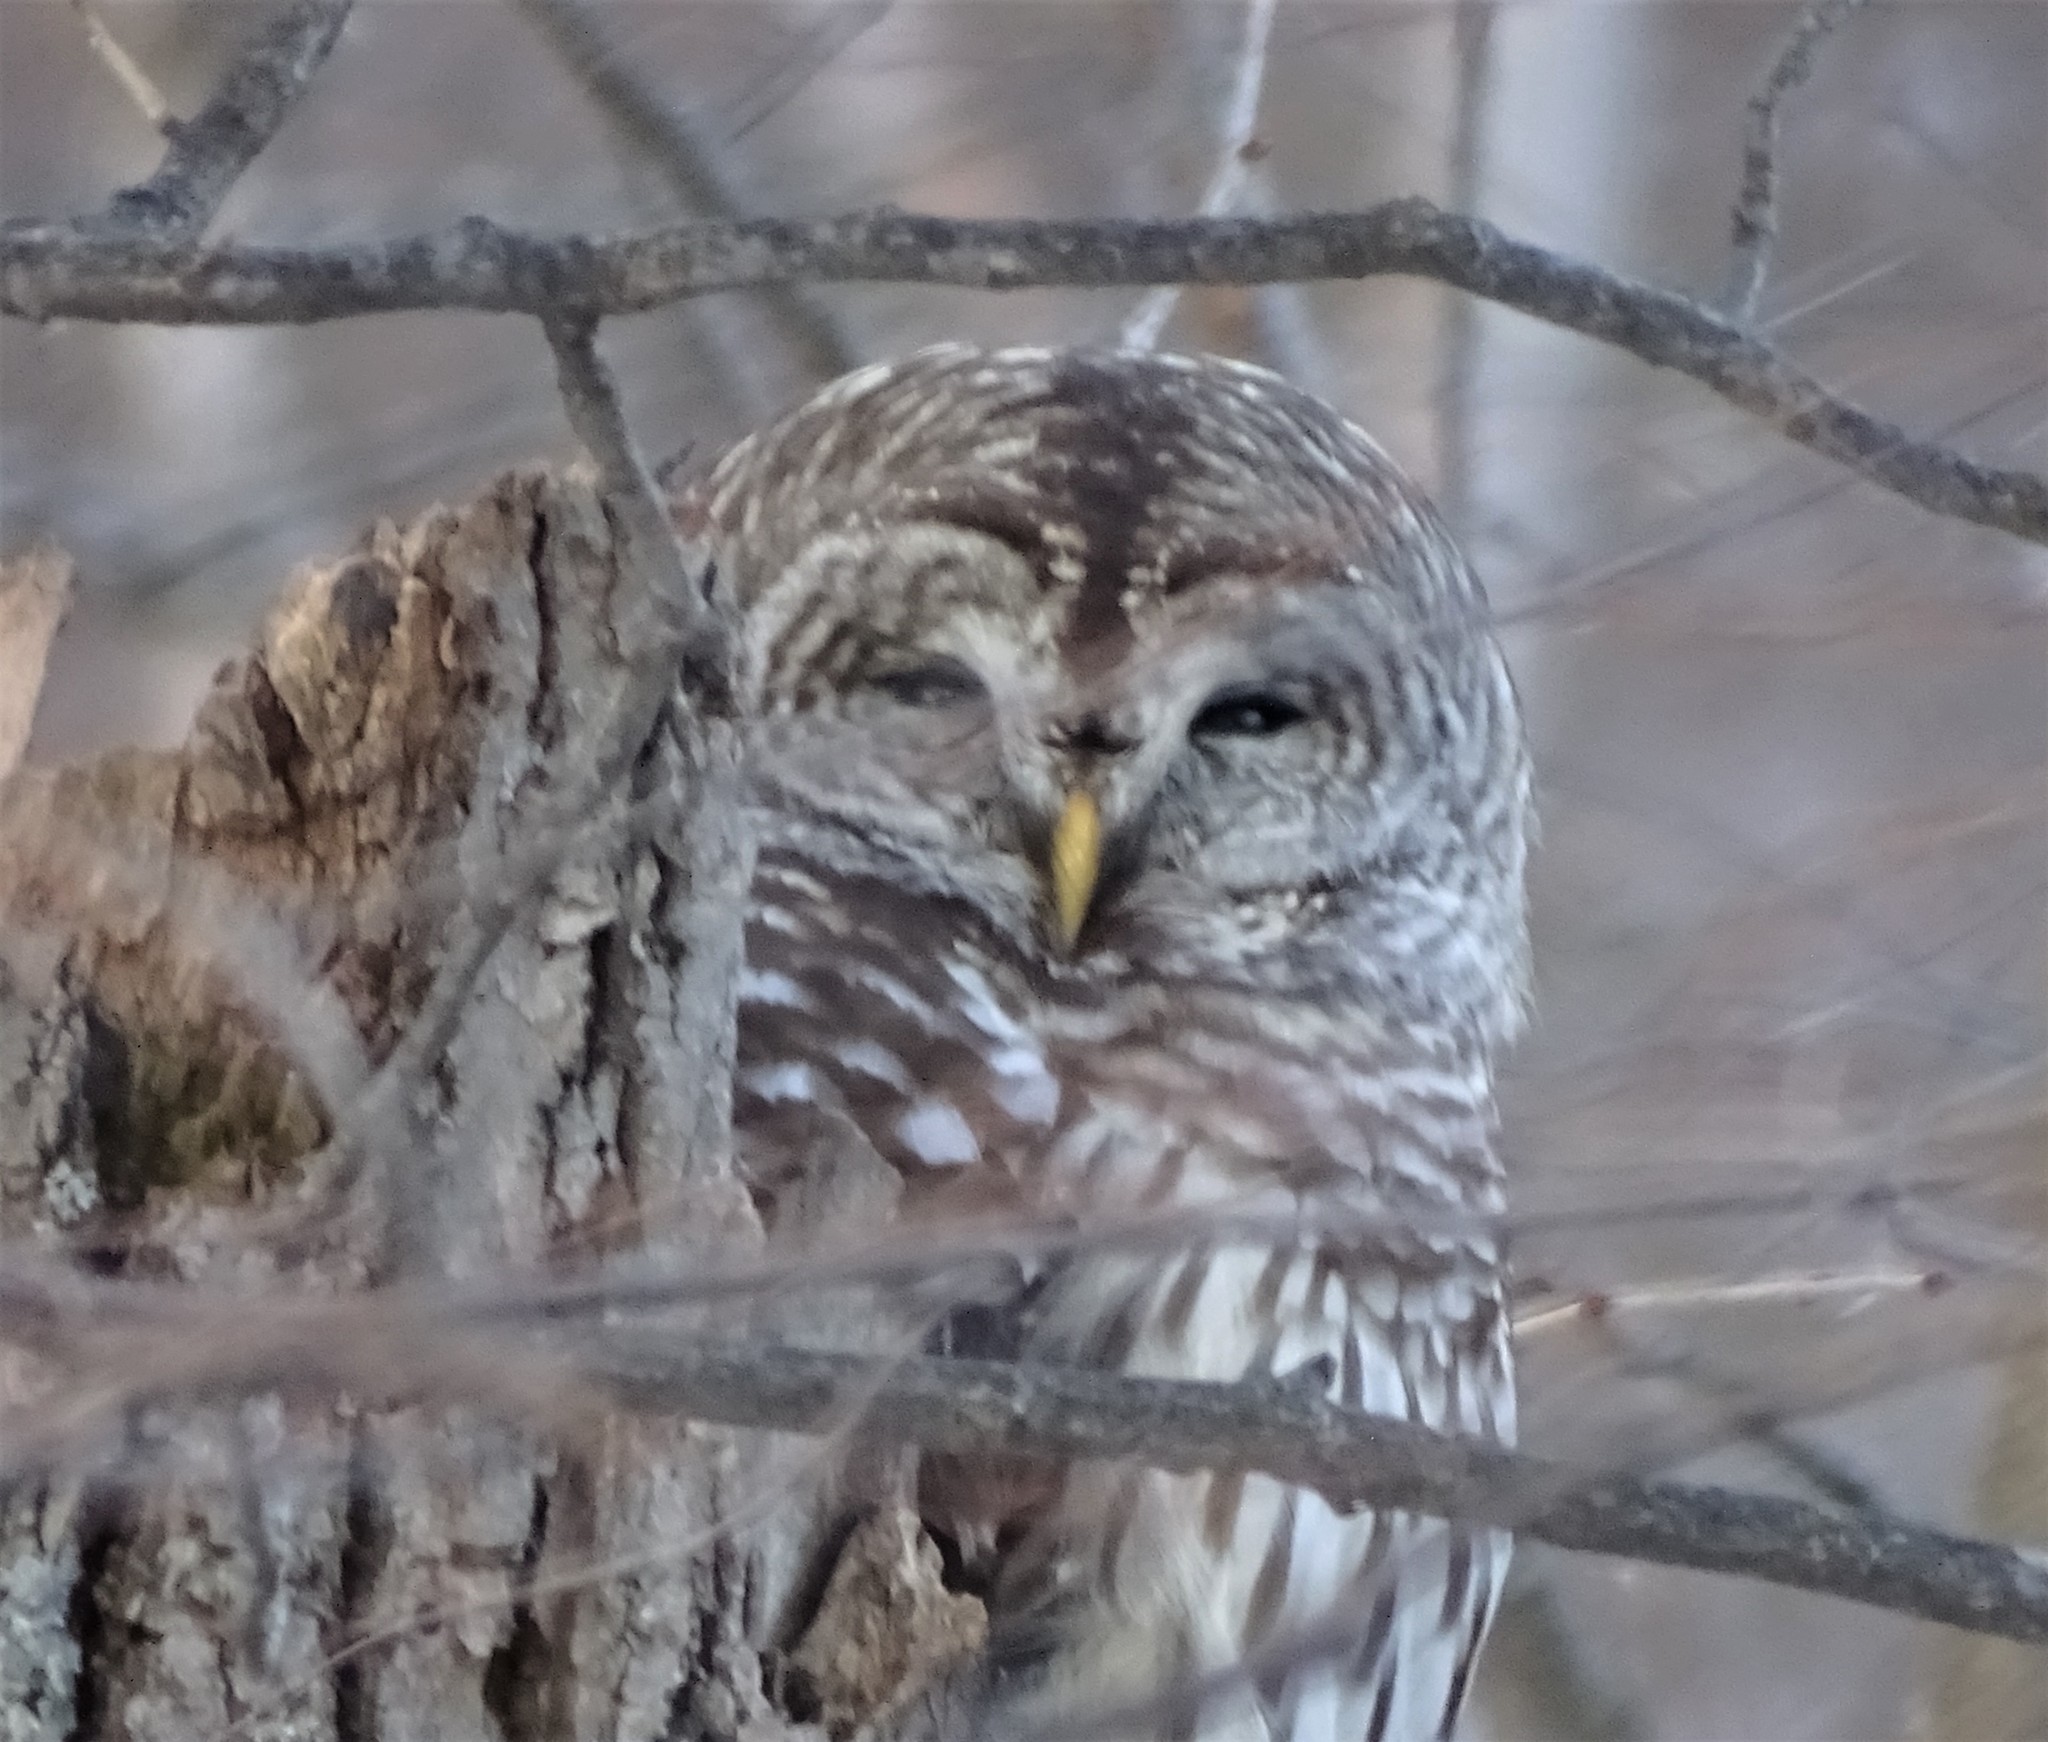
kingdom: Animalia
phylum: Chordata
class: Aves
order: Strigiformes
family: Strigidae
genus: Strix
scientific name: Strix varia
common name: Barred owl
